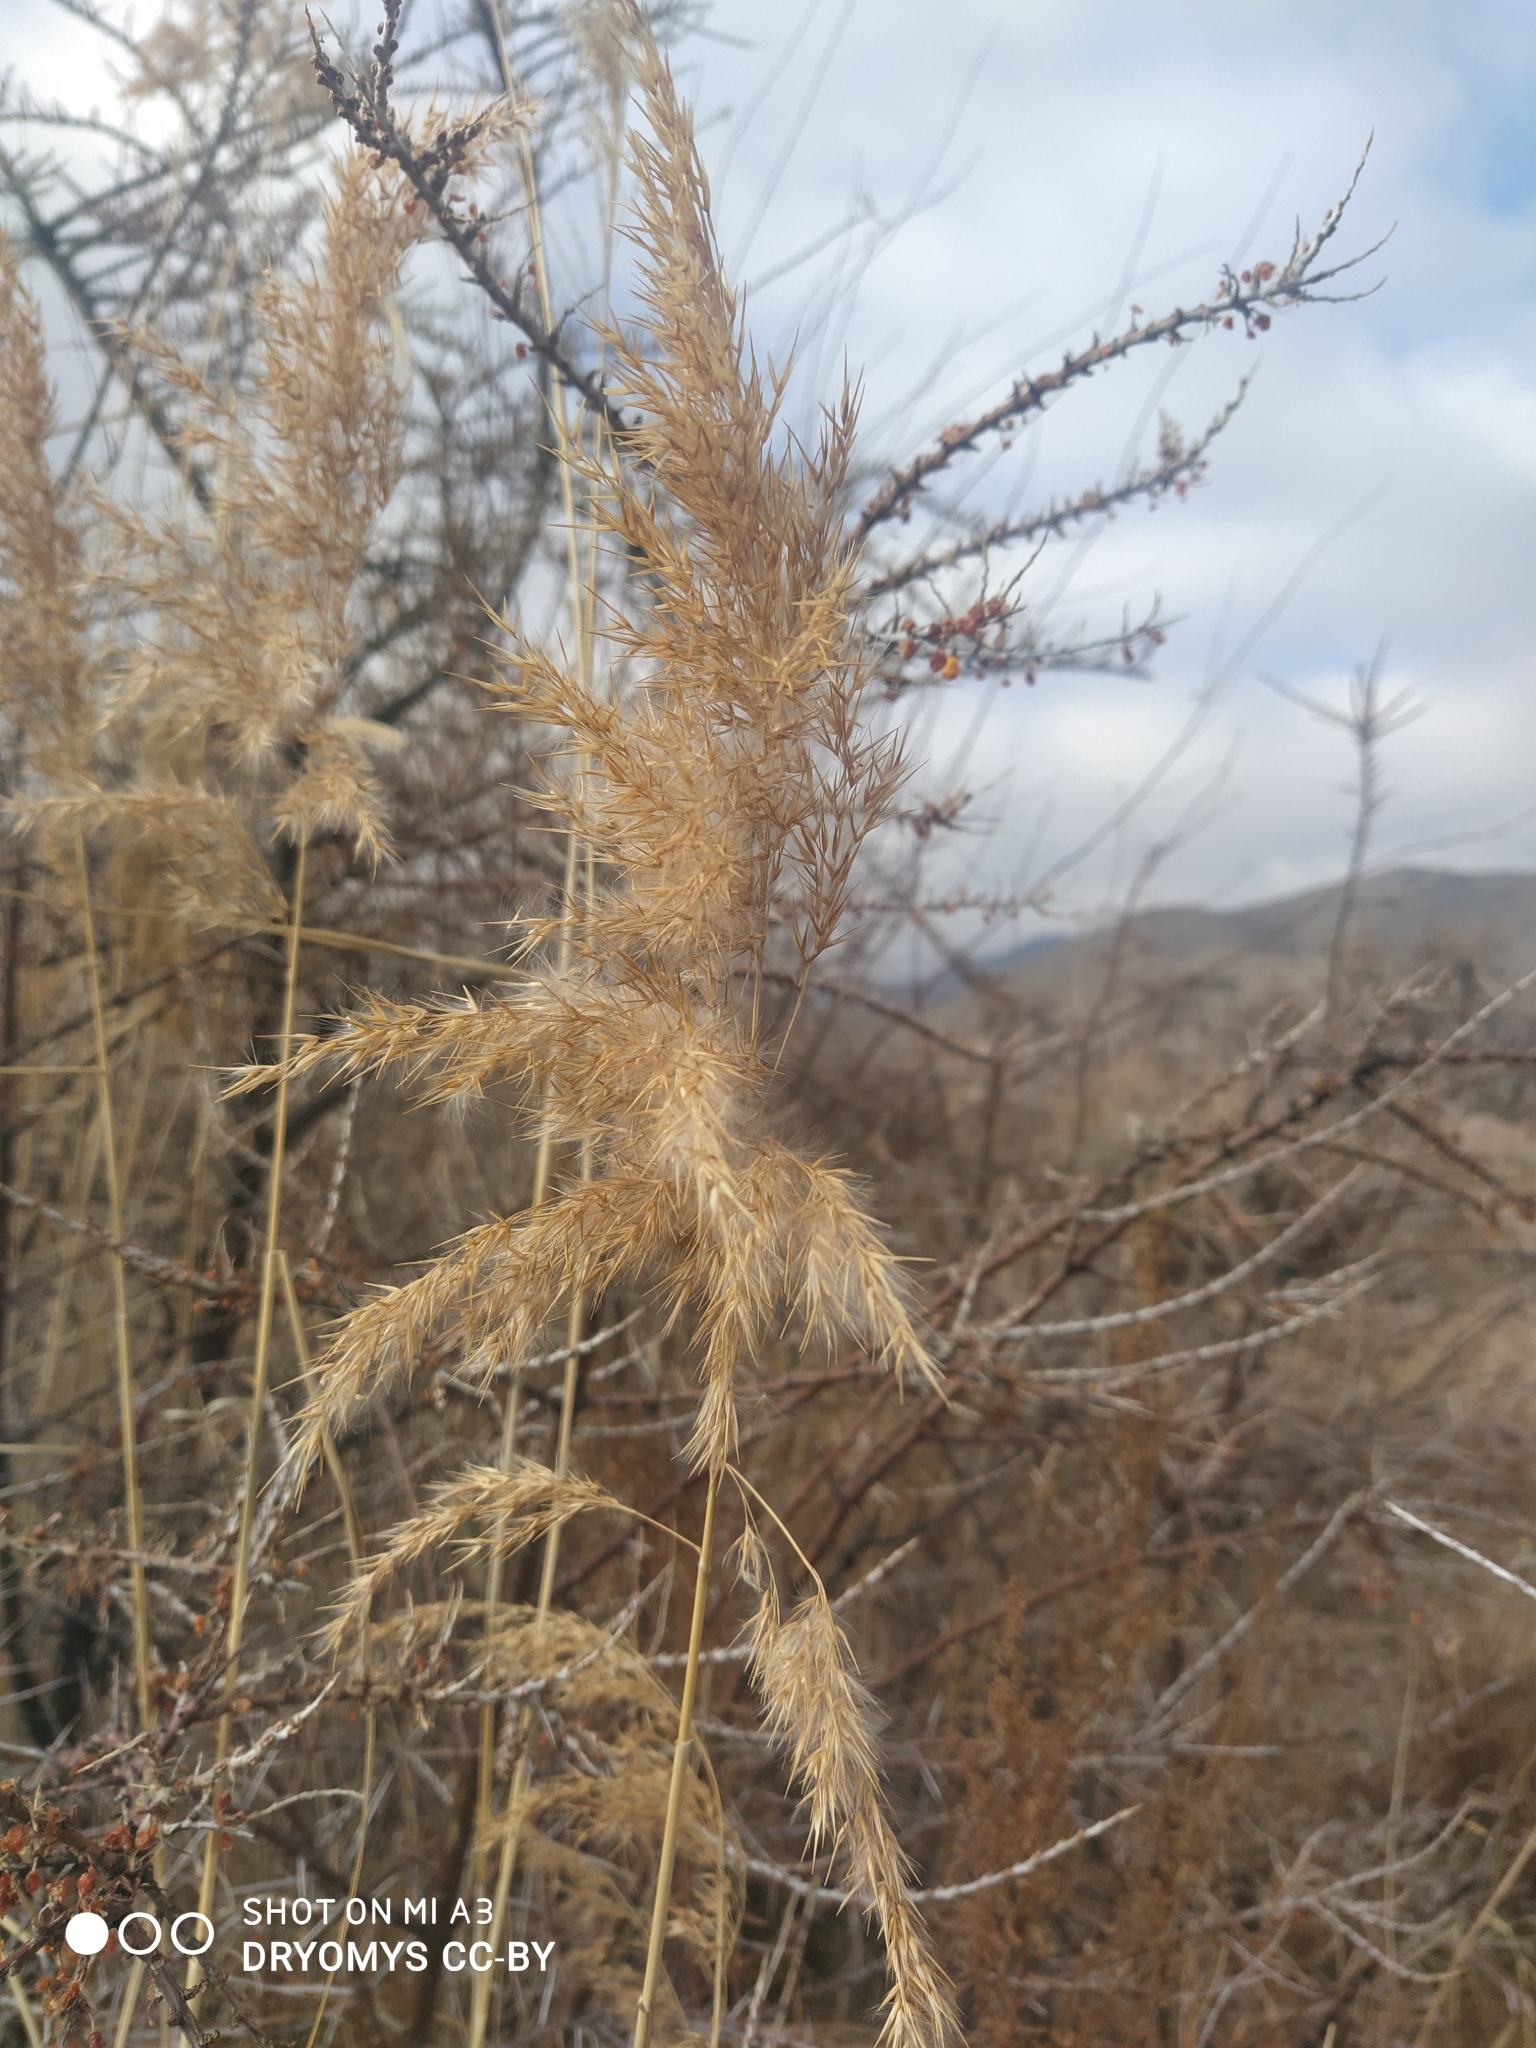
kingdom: Plantae
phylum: Tracheophyta
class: Liliopsida
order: Poales
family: Poaceae
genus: Phragmites
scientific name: Phragmites australis
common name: Common reed
